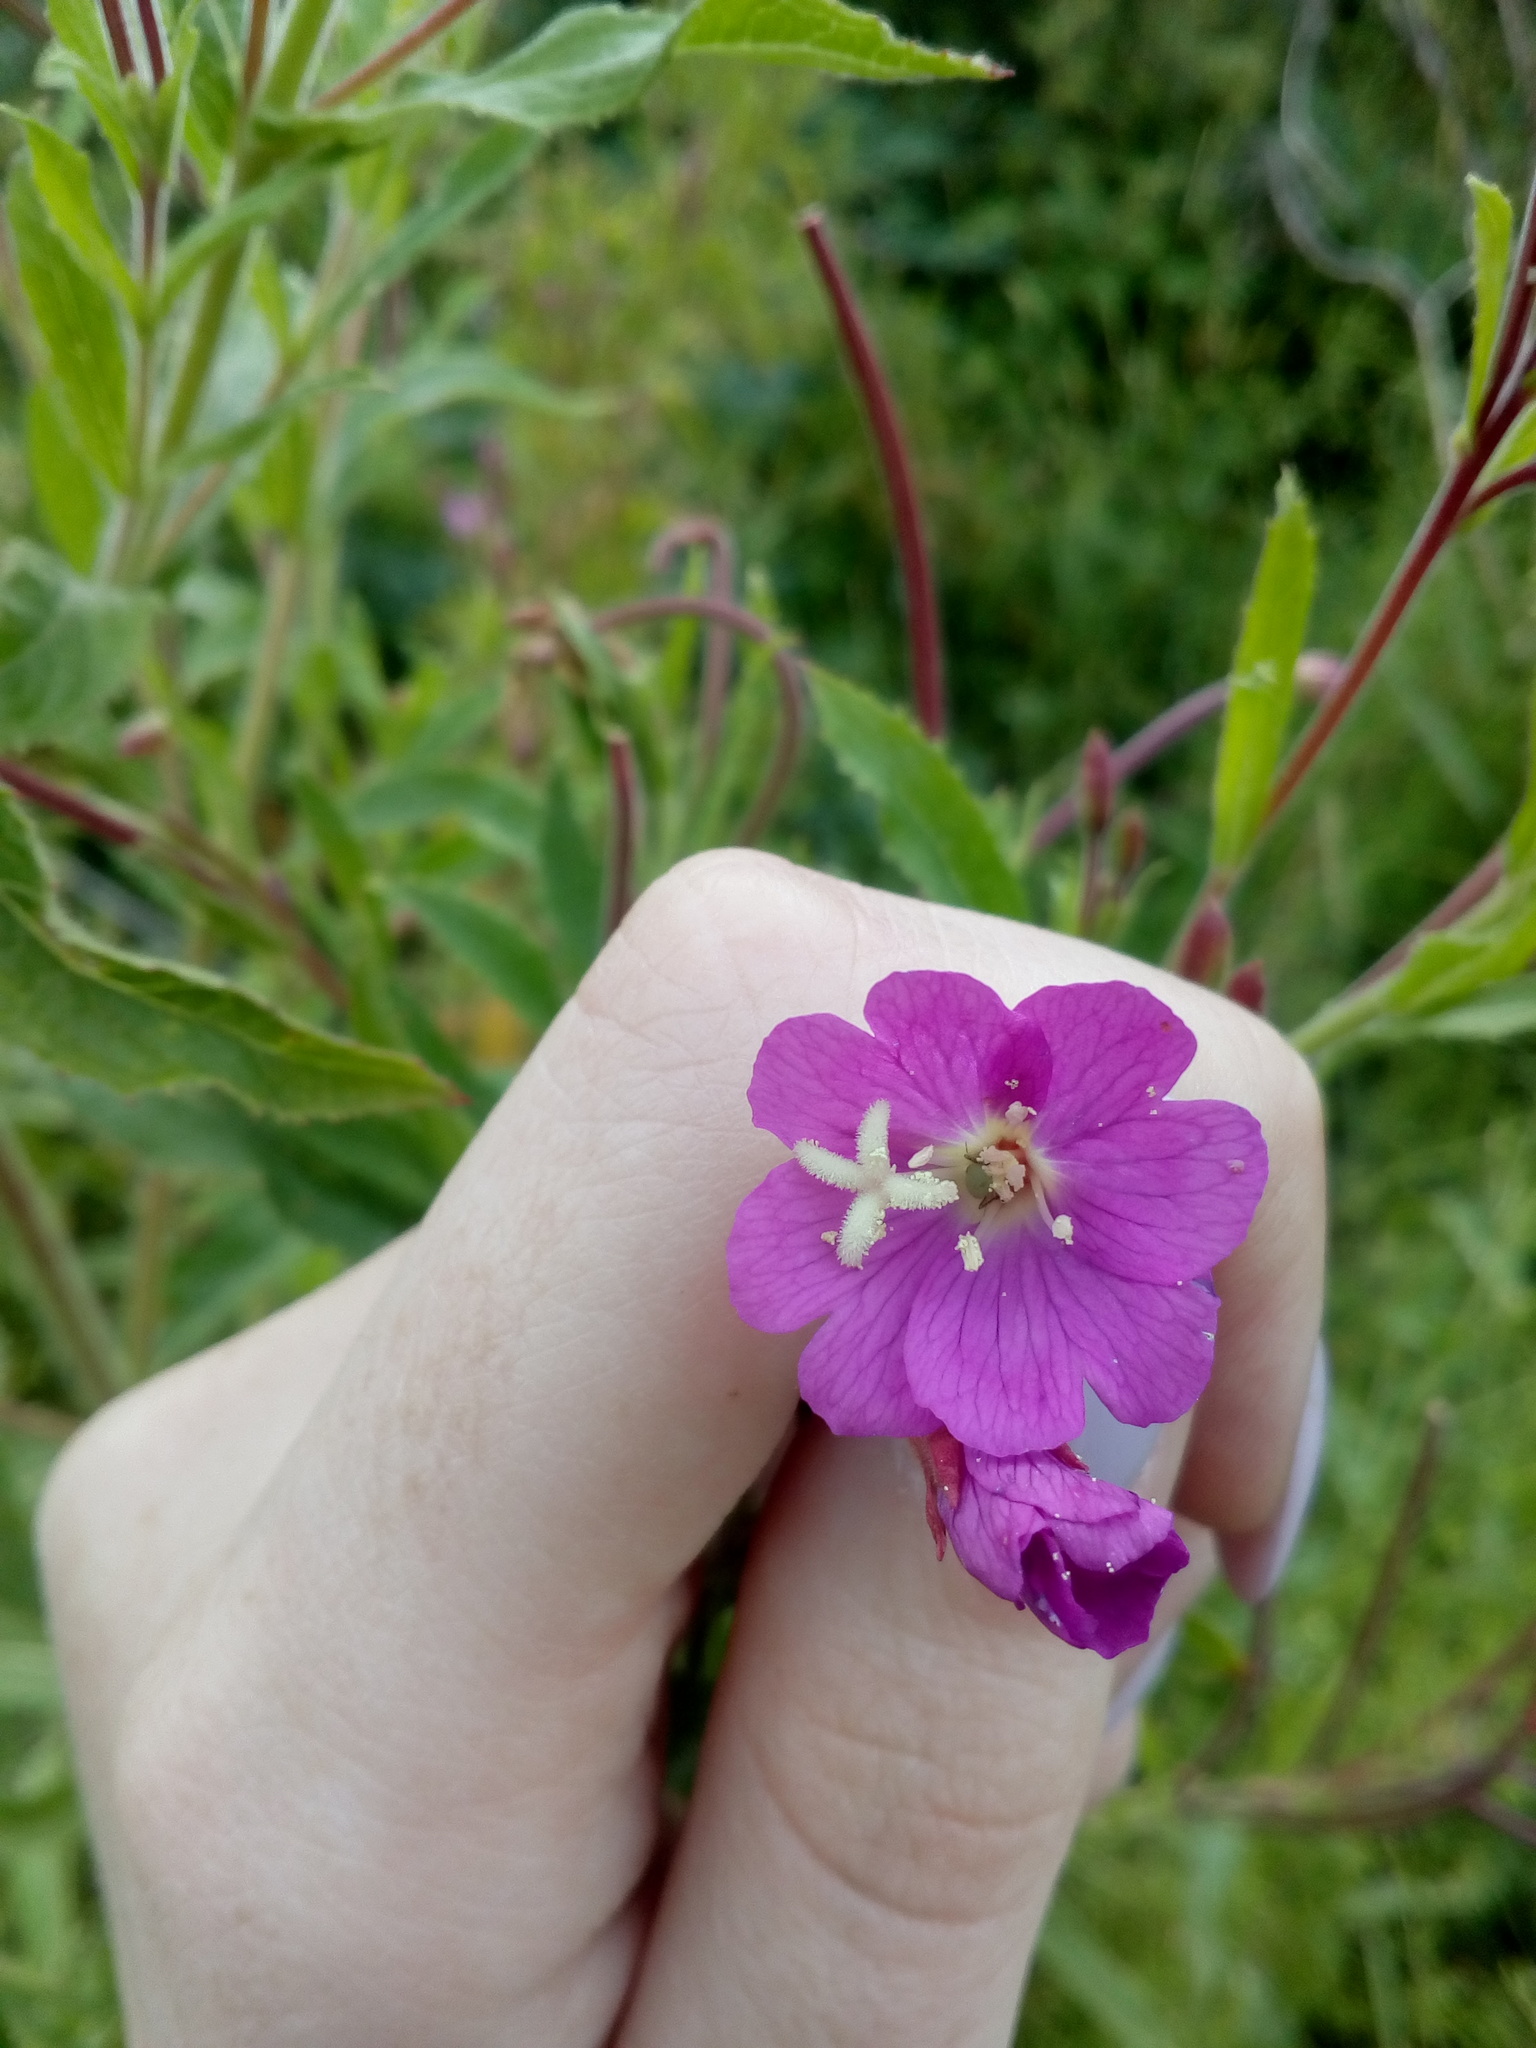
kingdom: Plantae
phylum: Tracheophyta
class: Magnoliopsida
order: Myrtales
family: Onagraceae
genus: Epilobium
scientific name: Epilobium hirsutum
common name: Great willowherb
